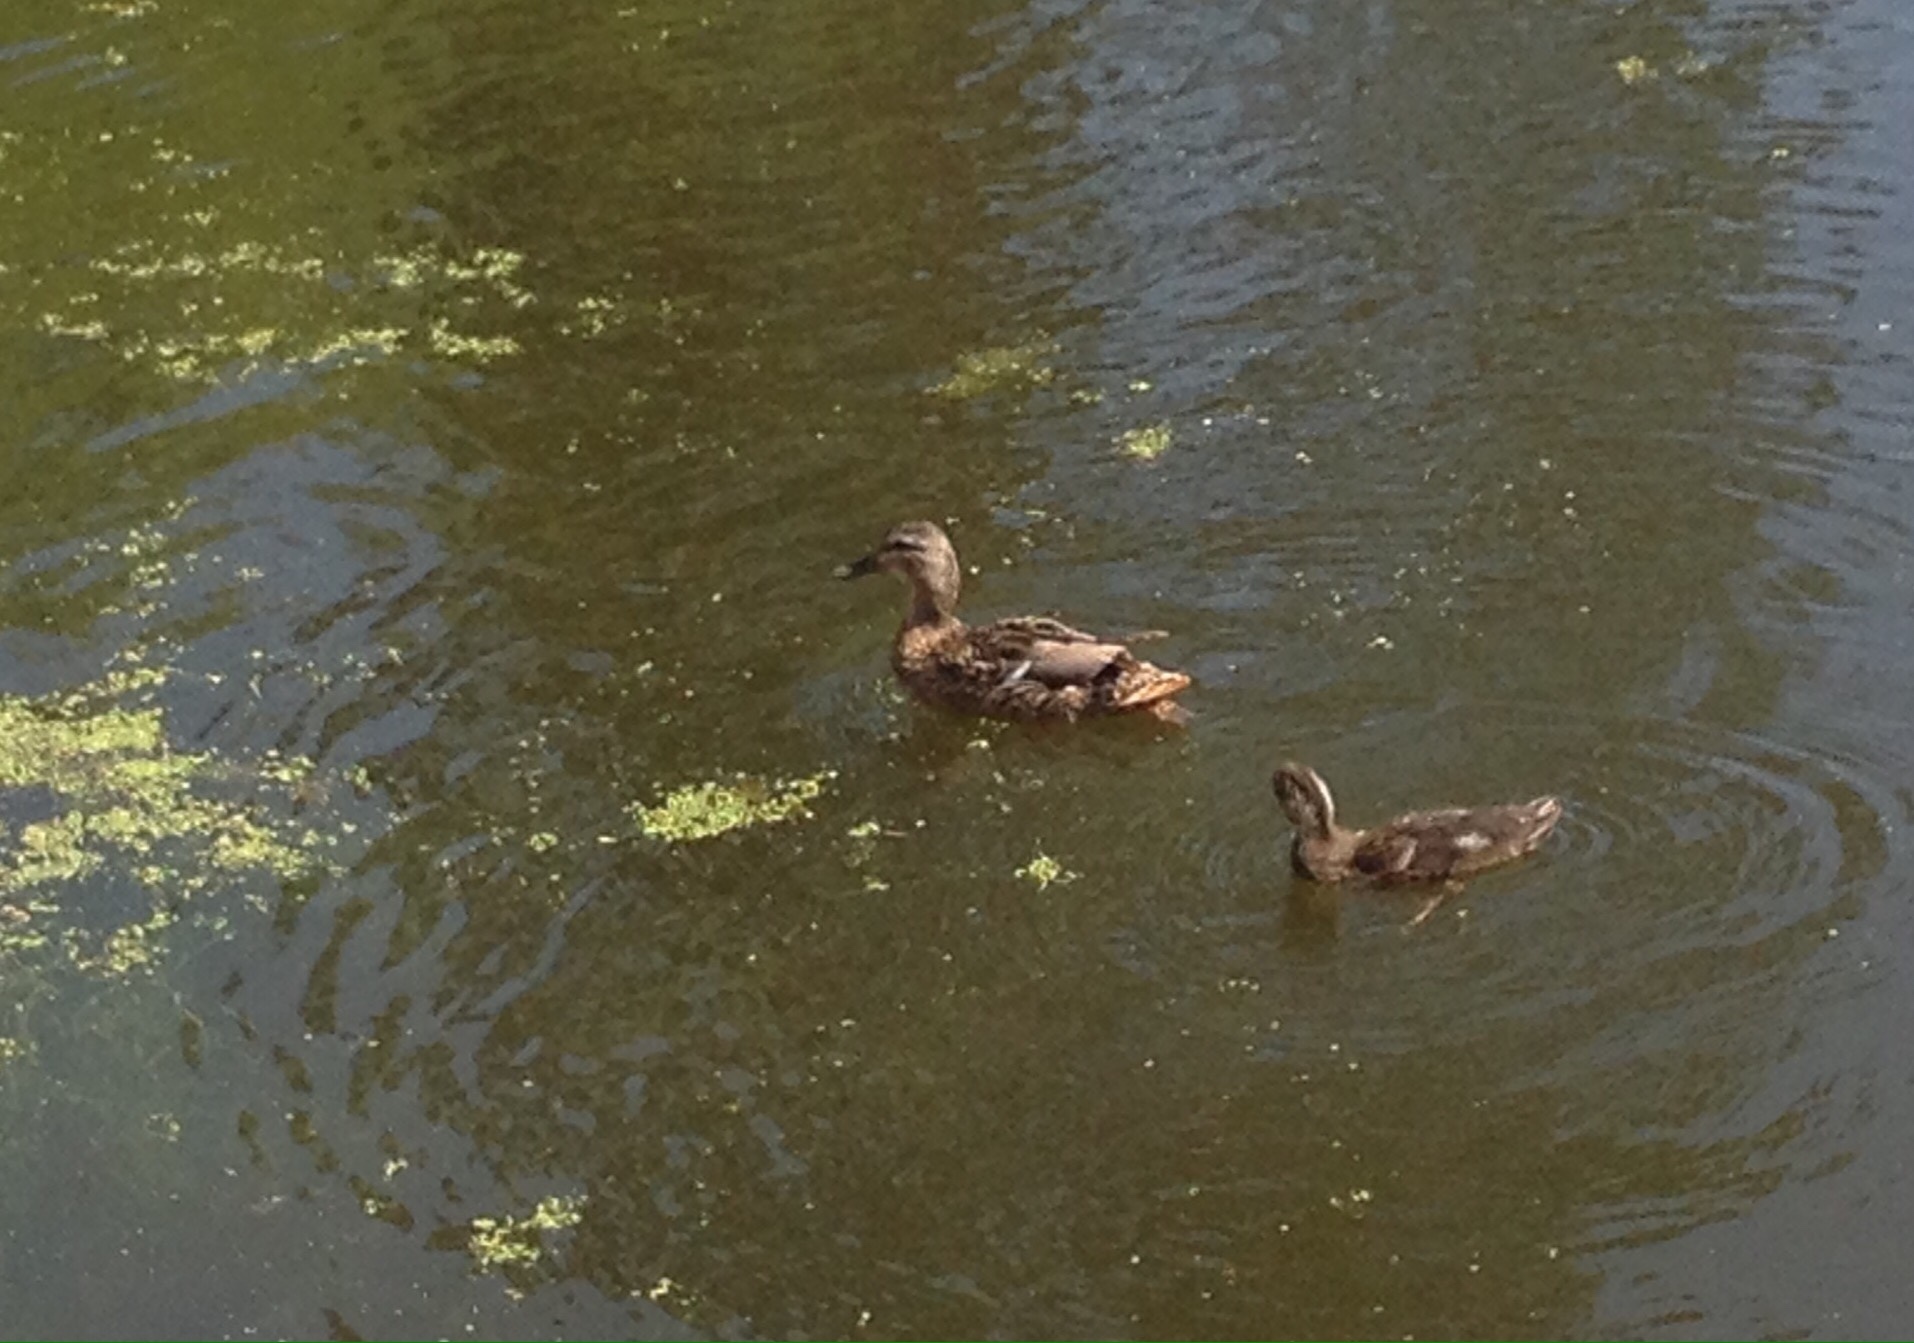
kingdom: Animalia
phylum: Chordata
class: Aves
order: Anseriformes
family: Anatidae
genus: Anas
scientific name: Anas platyrhynchos
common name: Mallard
